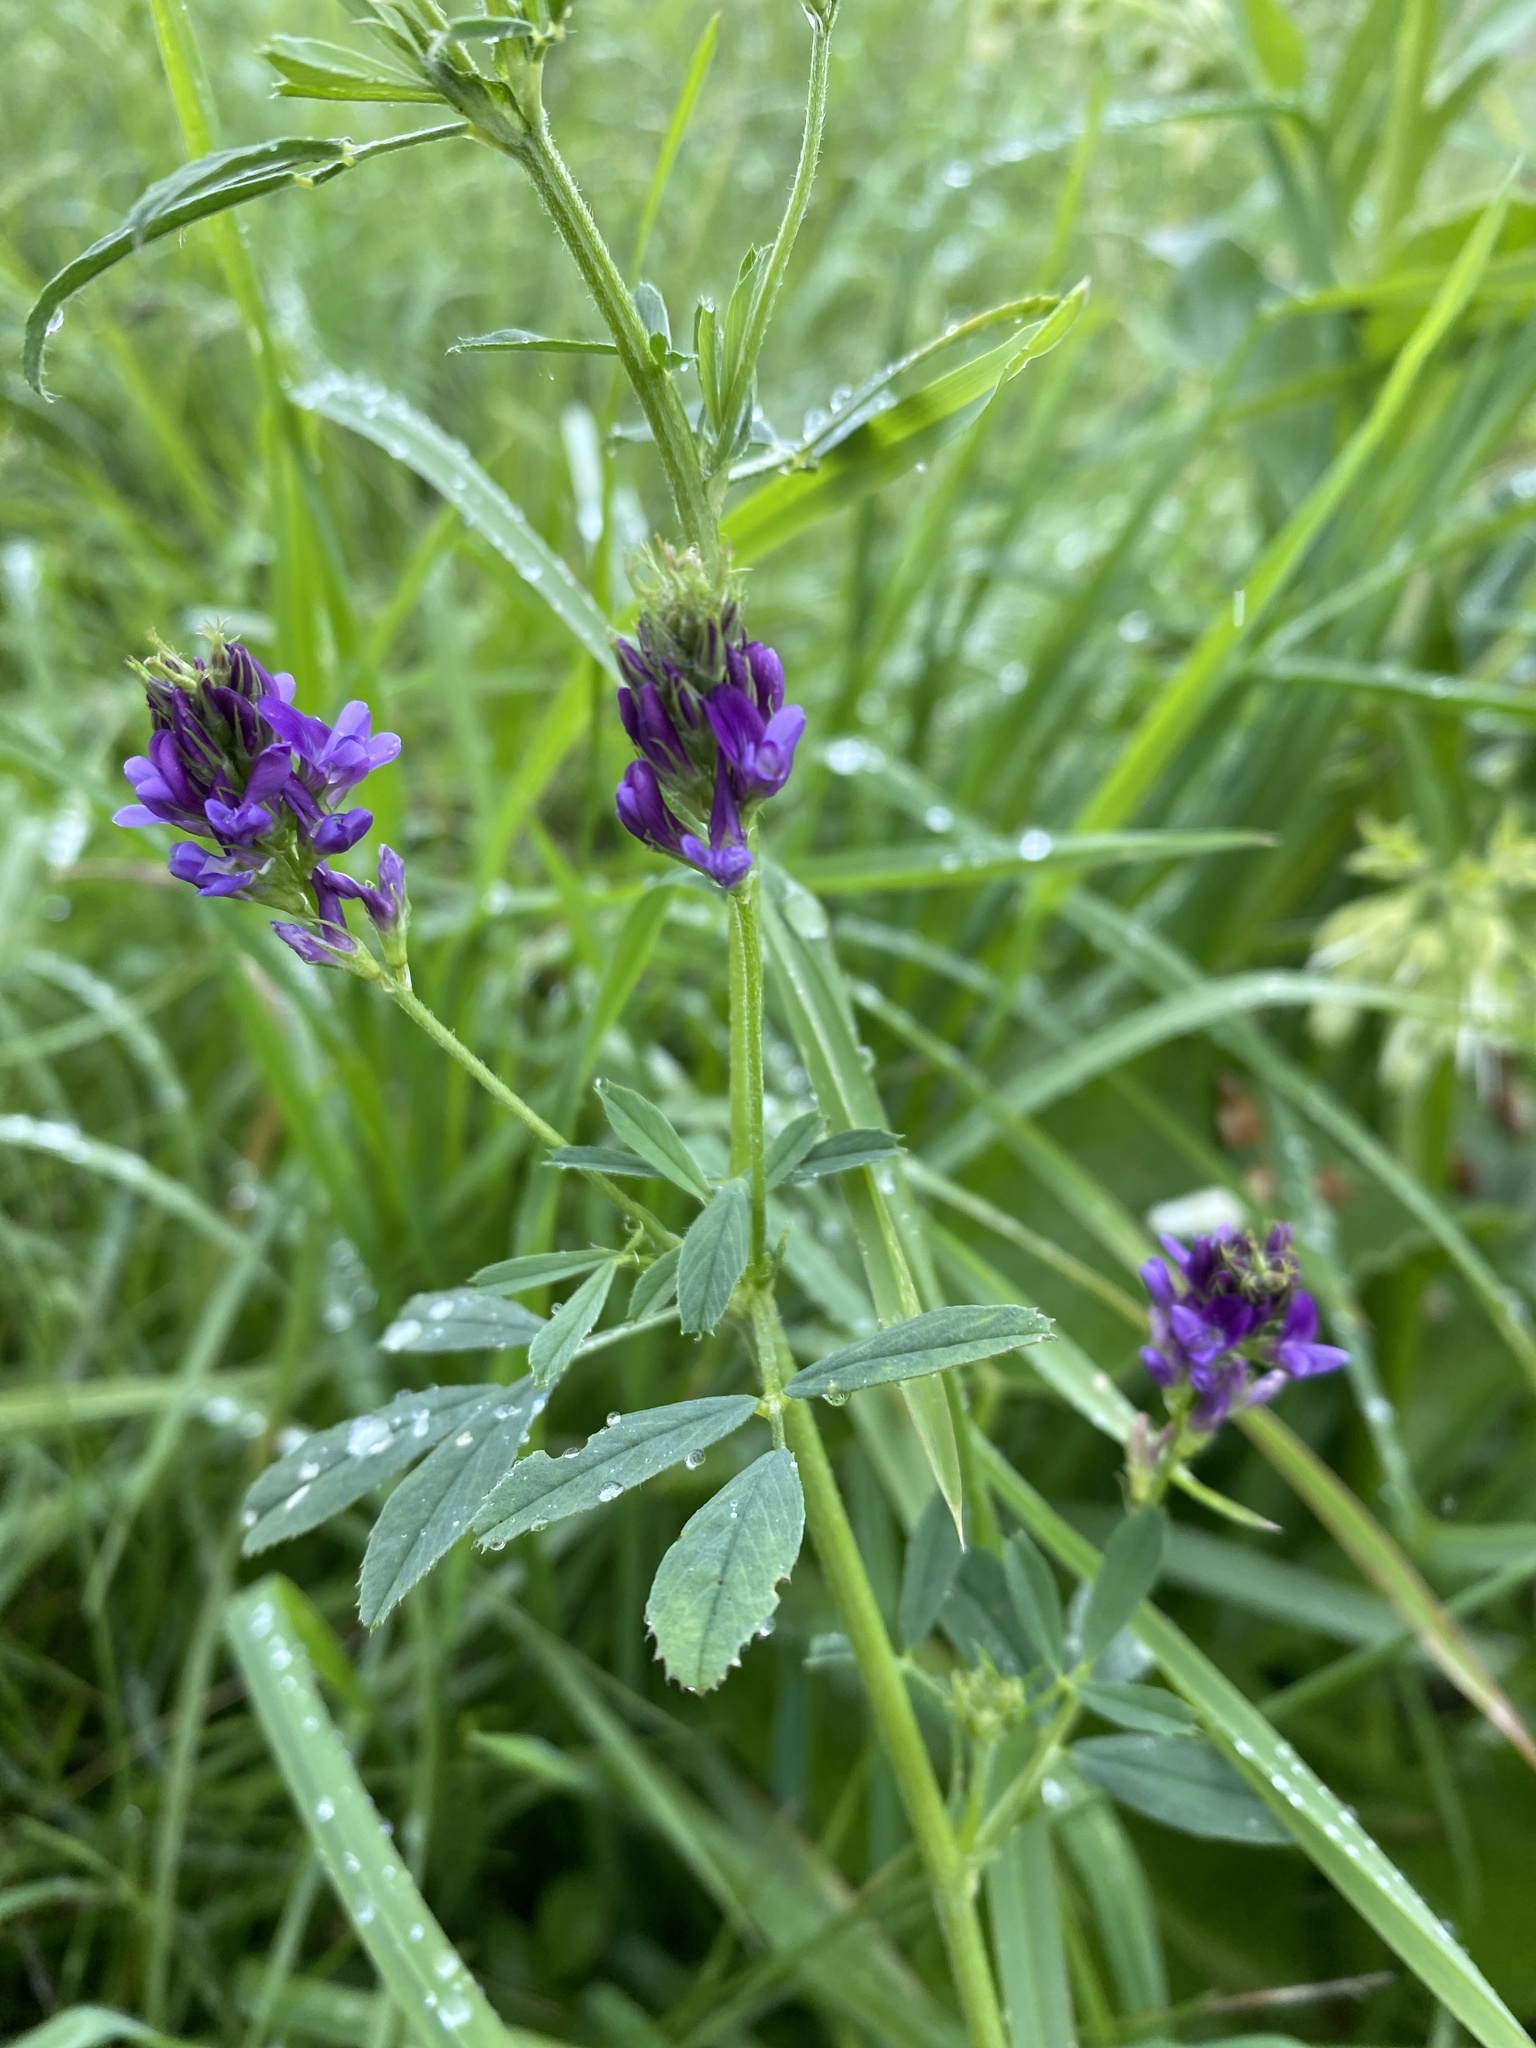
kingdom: Plantae
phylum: Tracheophyta
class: Magnoliopsida
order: Fabales
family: Fabaceae
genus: Medicago
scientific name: Medicago sativa
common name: Alfalfa
